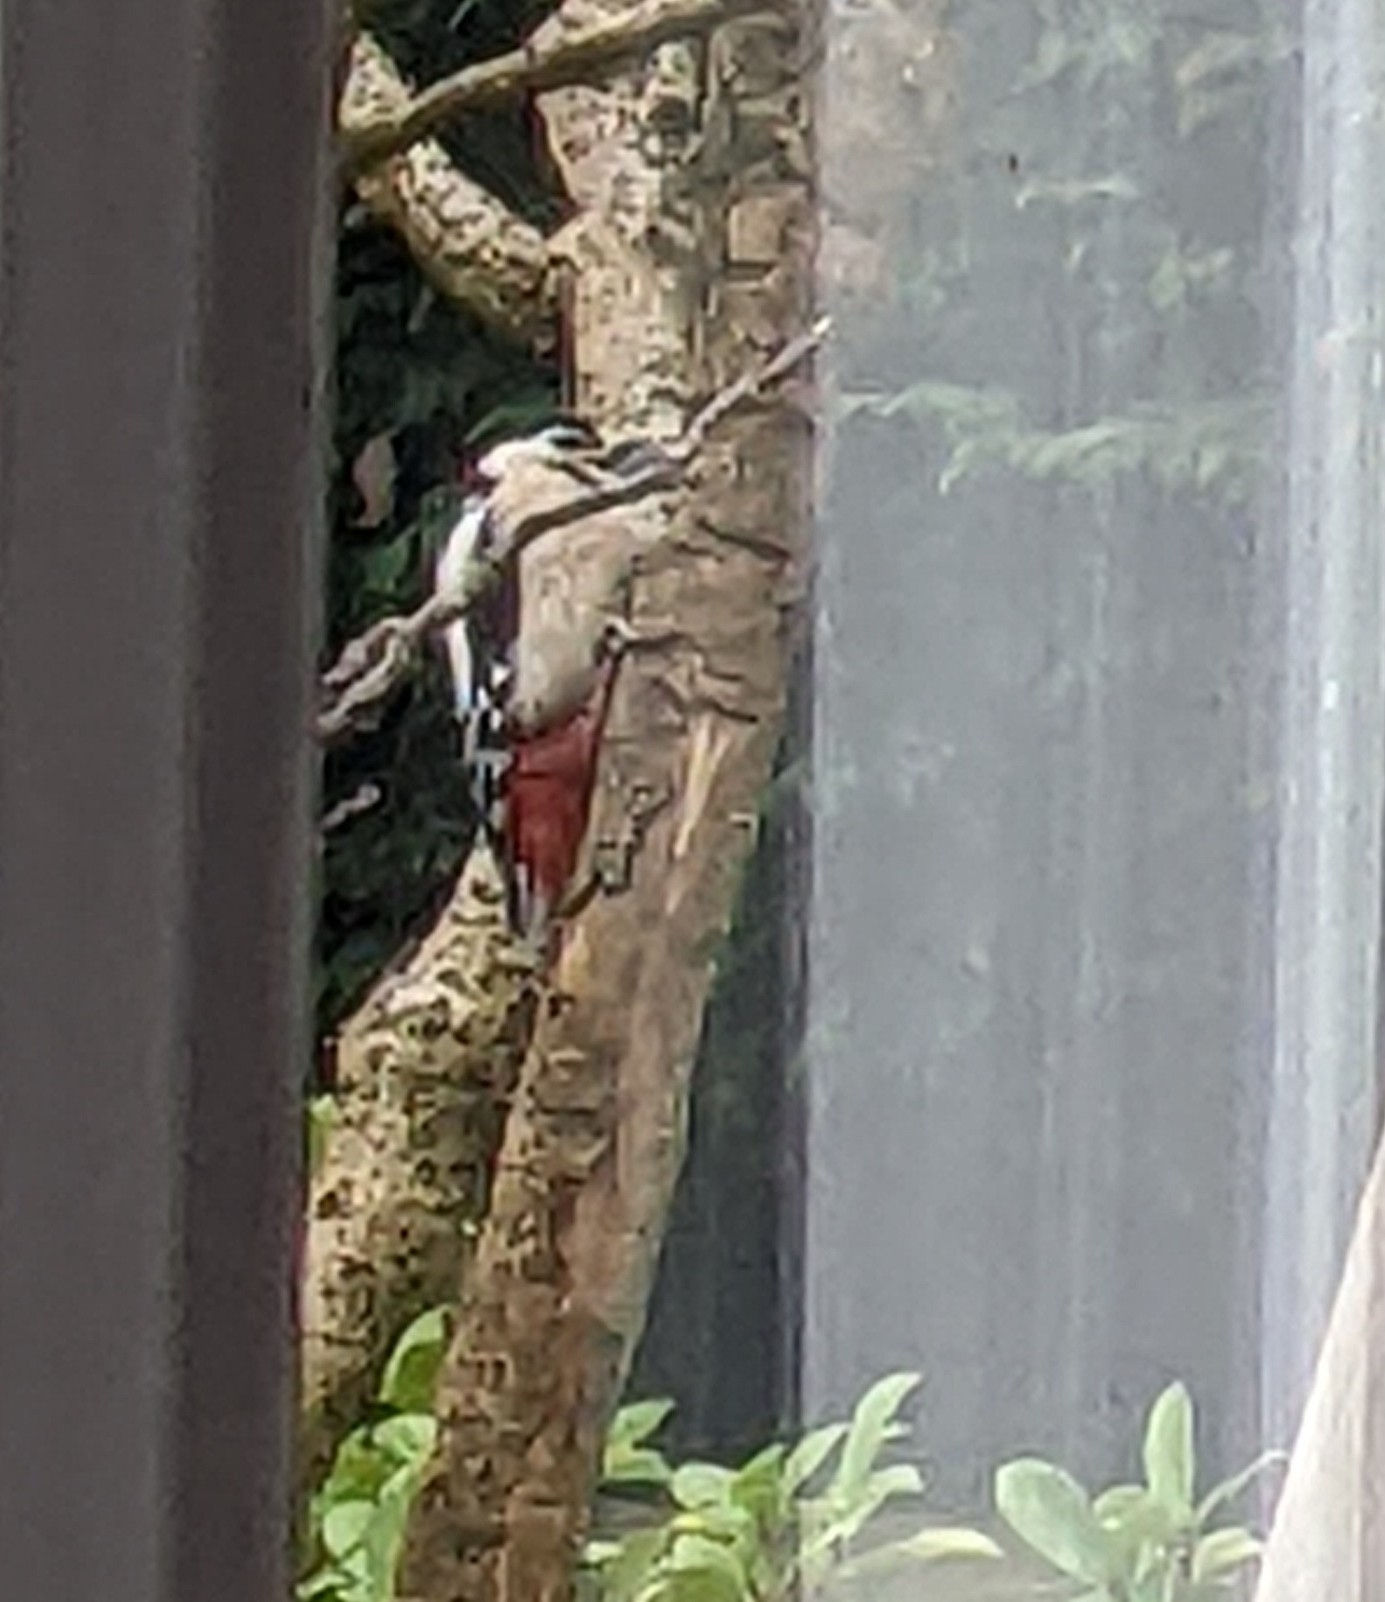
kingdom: Animalia
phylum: Chordata
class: Aves
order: Piciformes
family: Picidae
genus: Dendrocopos
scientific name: Dendrocopos major
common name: Great spotted woodpecker
